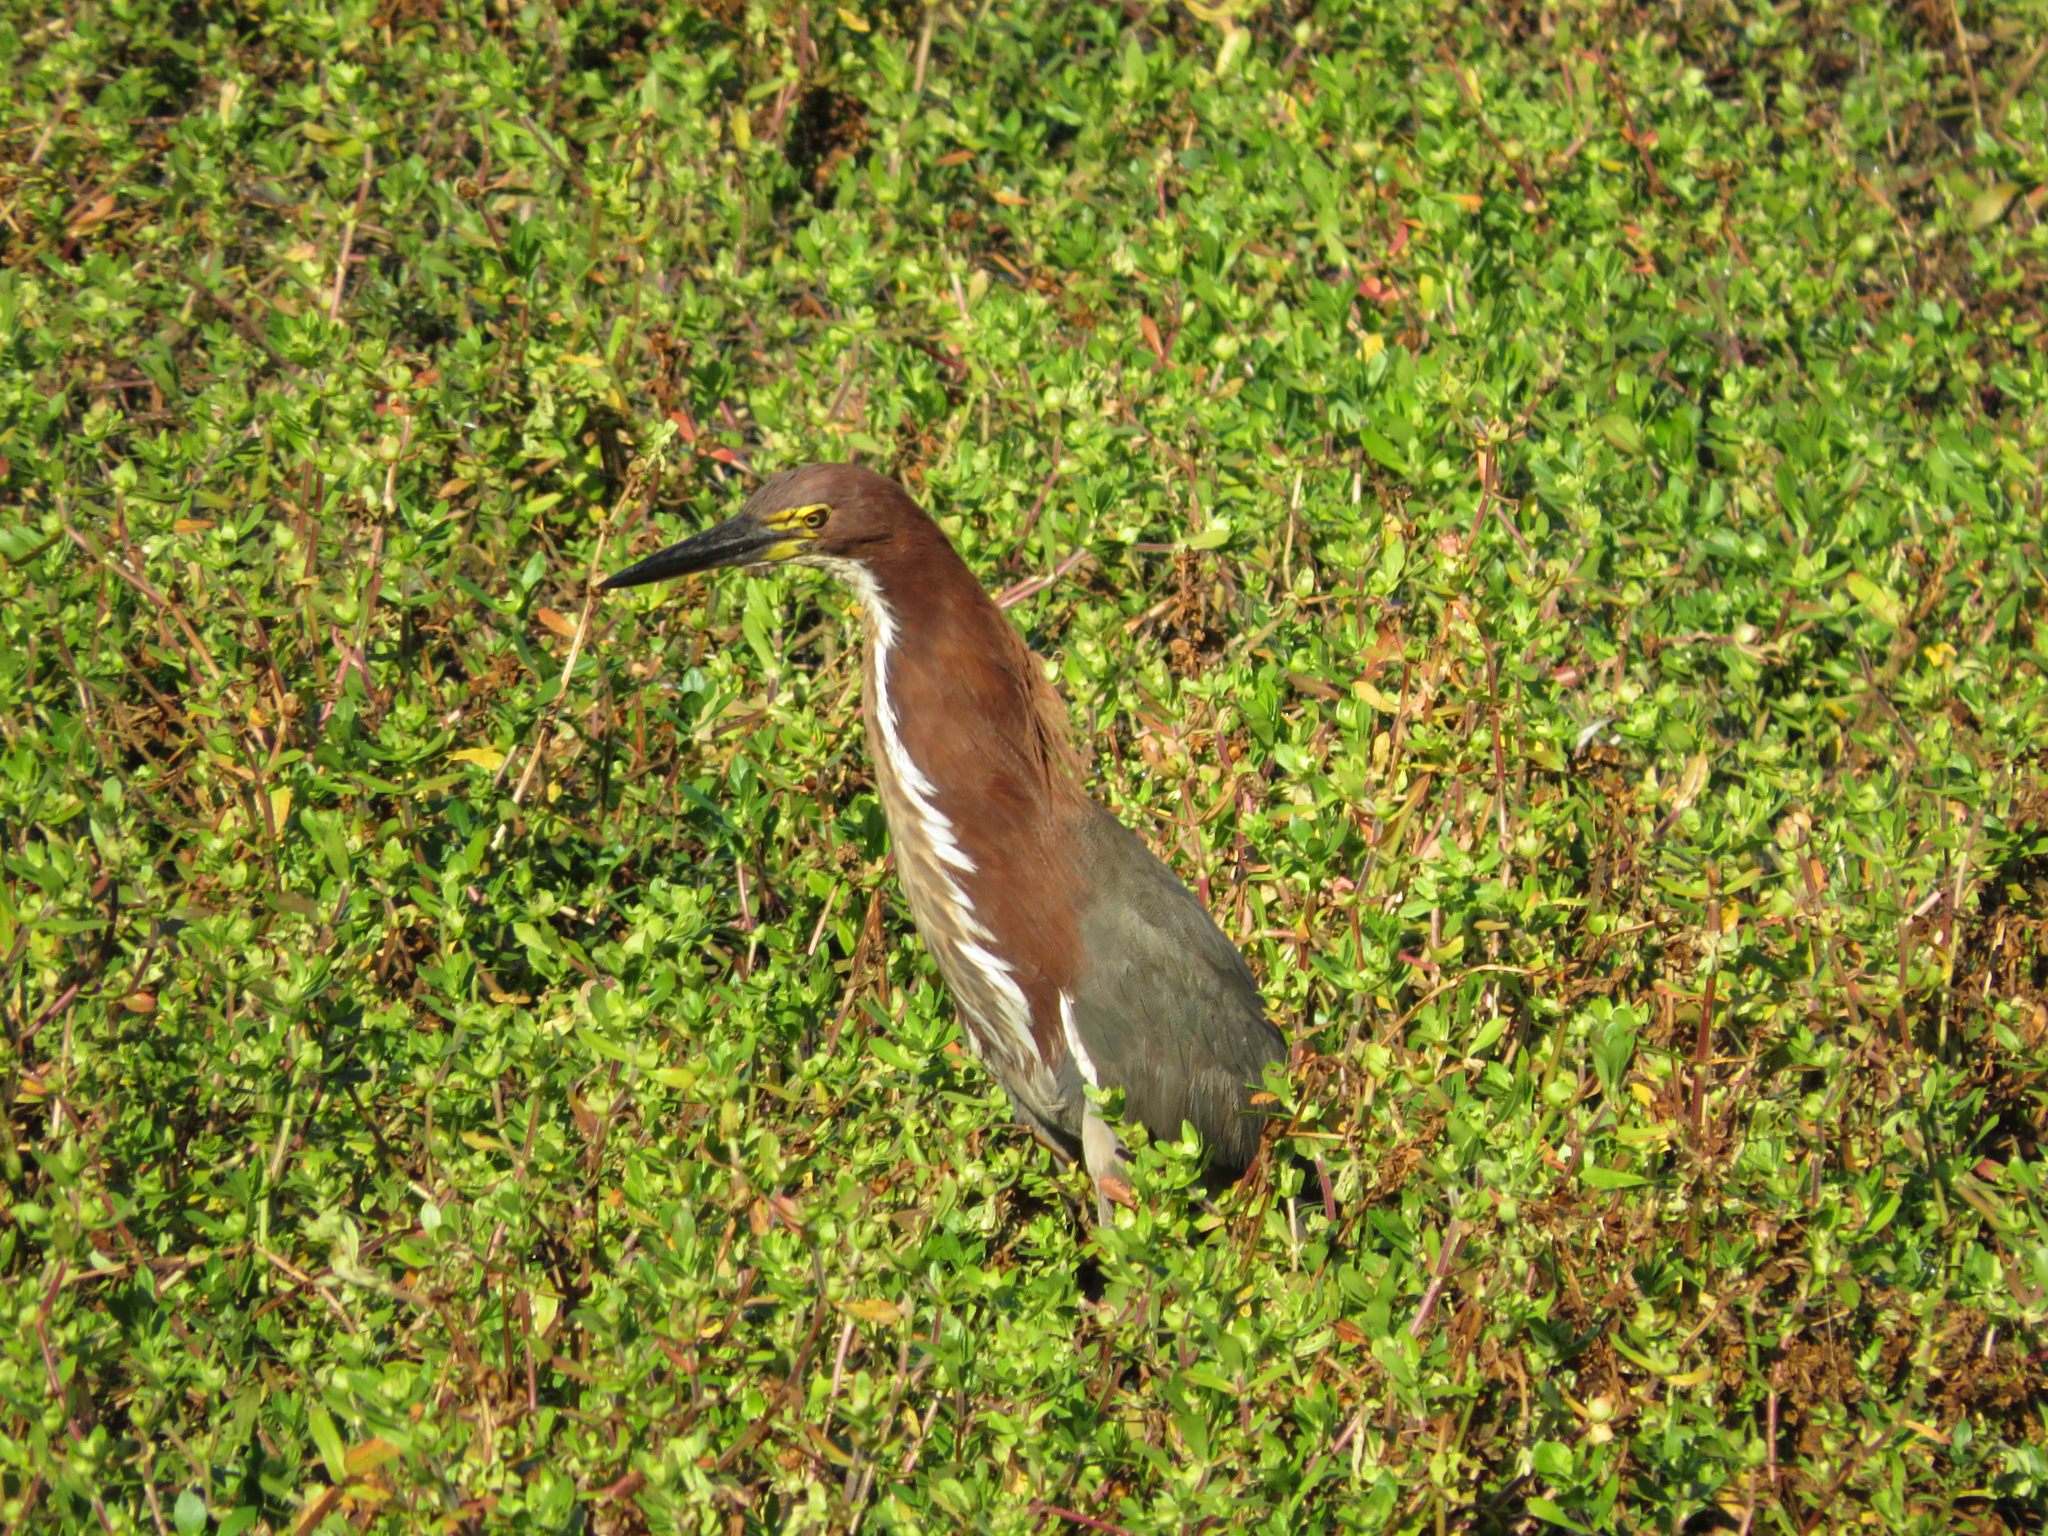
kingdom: Animalia
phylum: Chordata
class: Aves
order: Pelecaniformes
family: Ardeidae
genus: Tigrisoma
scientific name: Tigrisoma lineatum
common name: Rufescent tiger-heron
